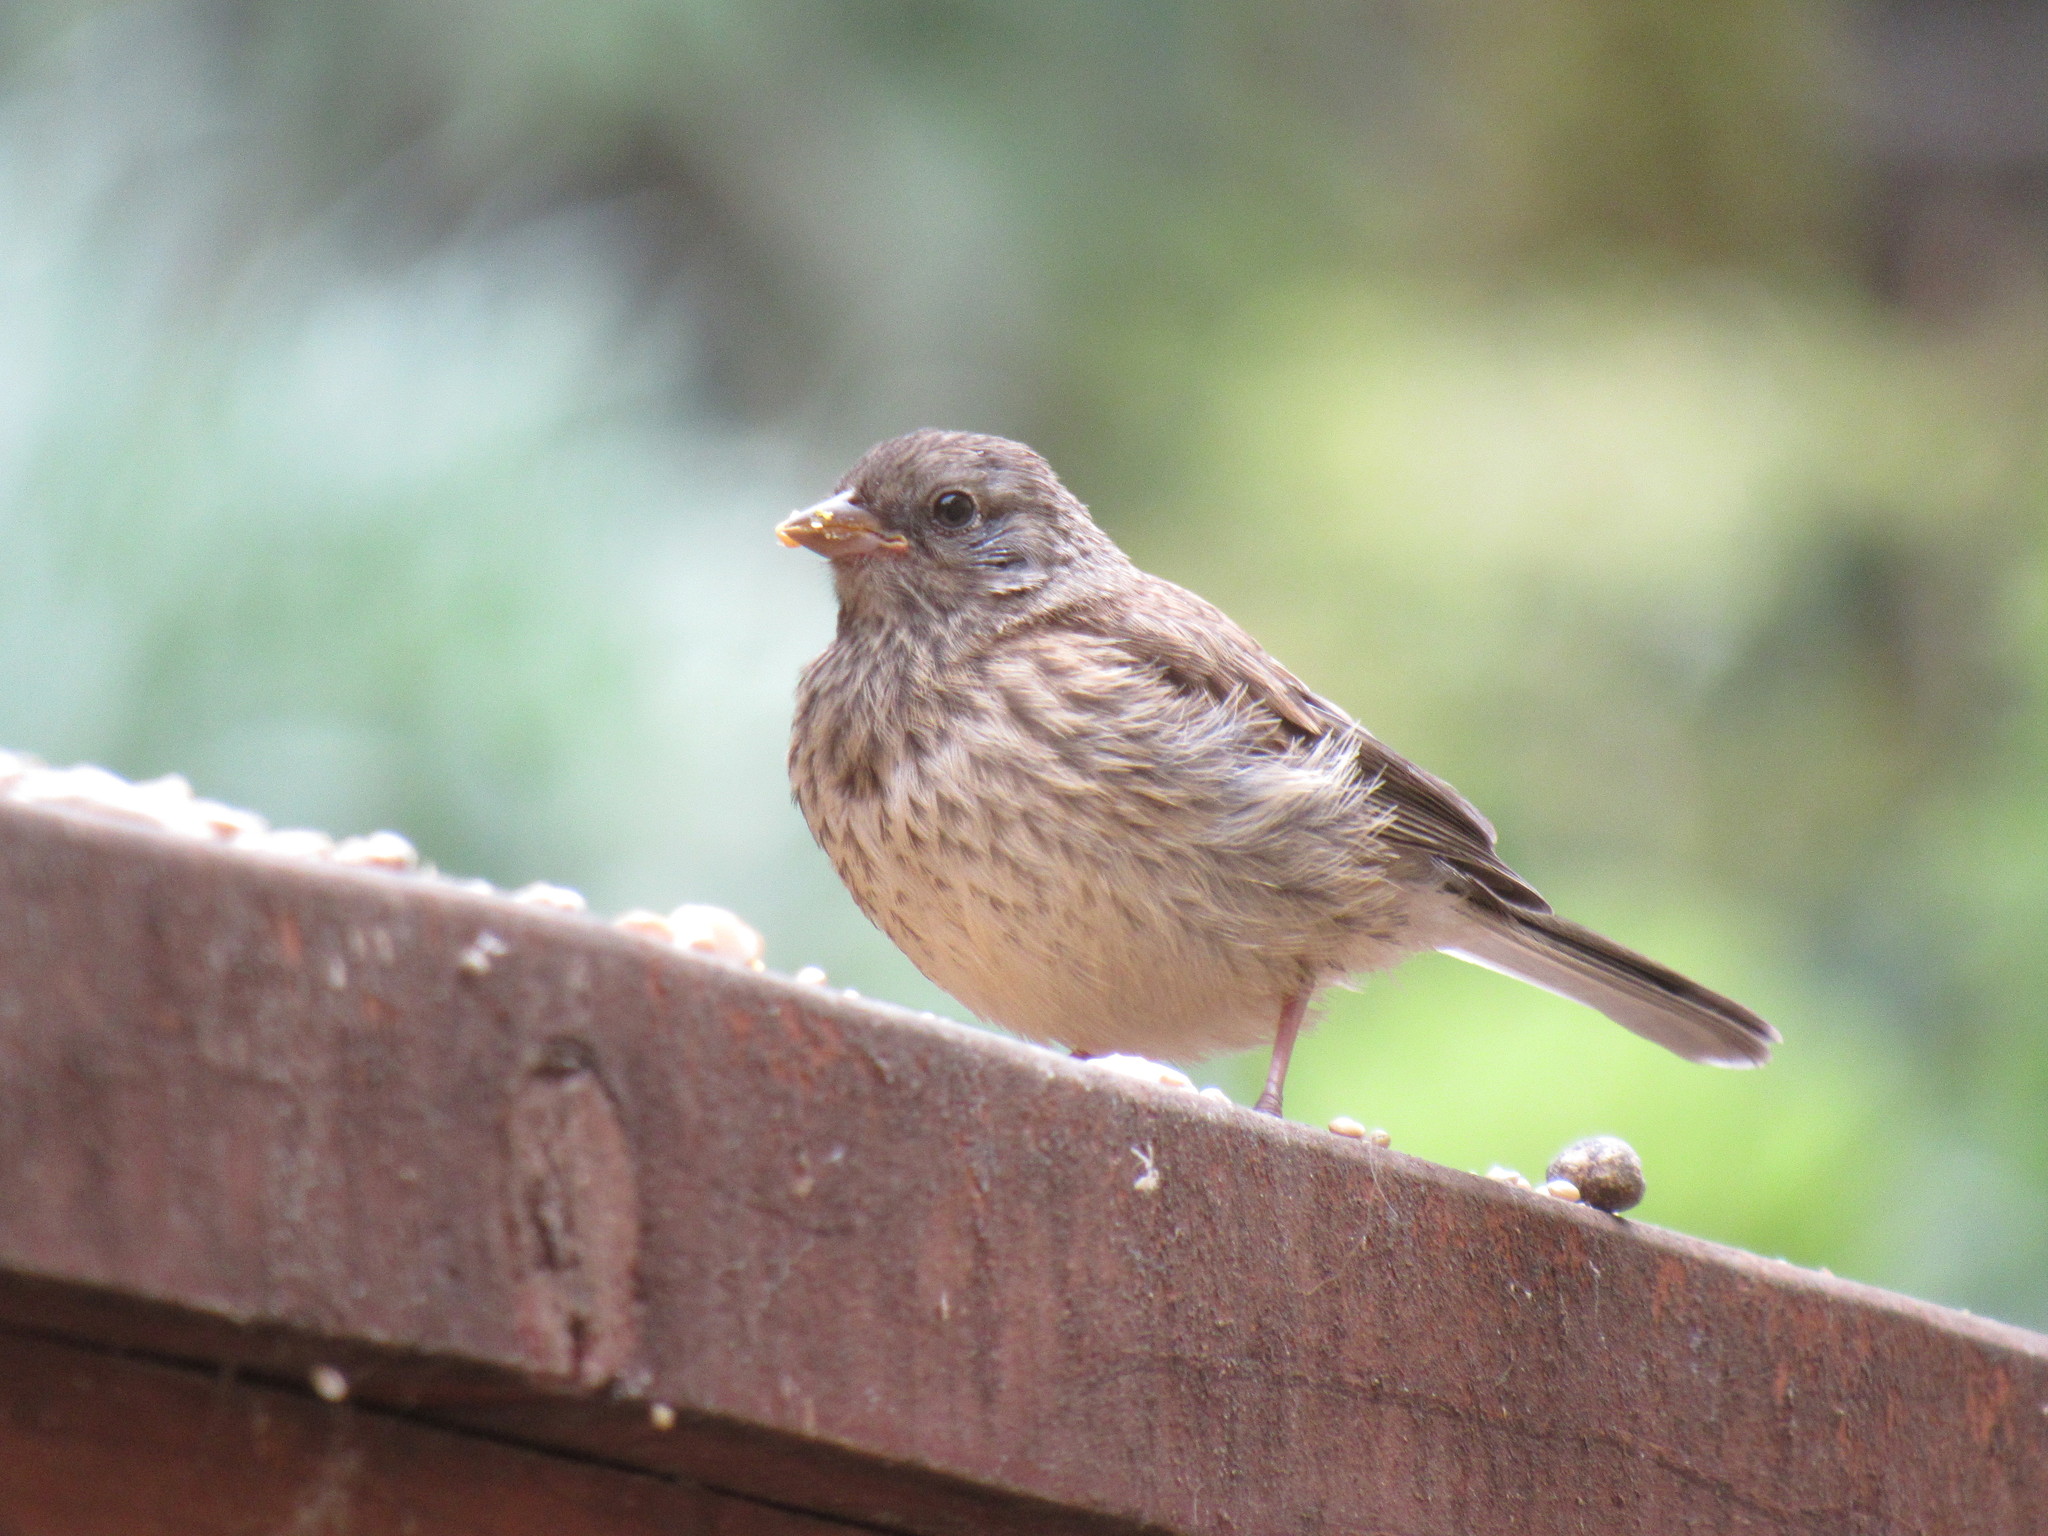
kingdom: Animalia
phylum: Chordata
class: Aves
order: Passeriformes
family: Passerellidae
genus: Junco
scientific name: Junco hyemalis
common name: Dark-eyed junco
